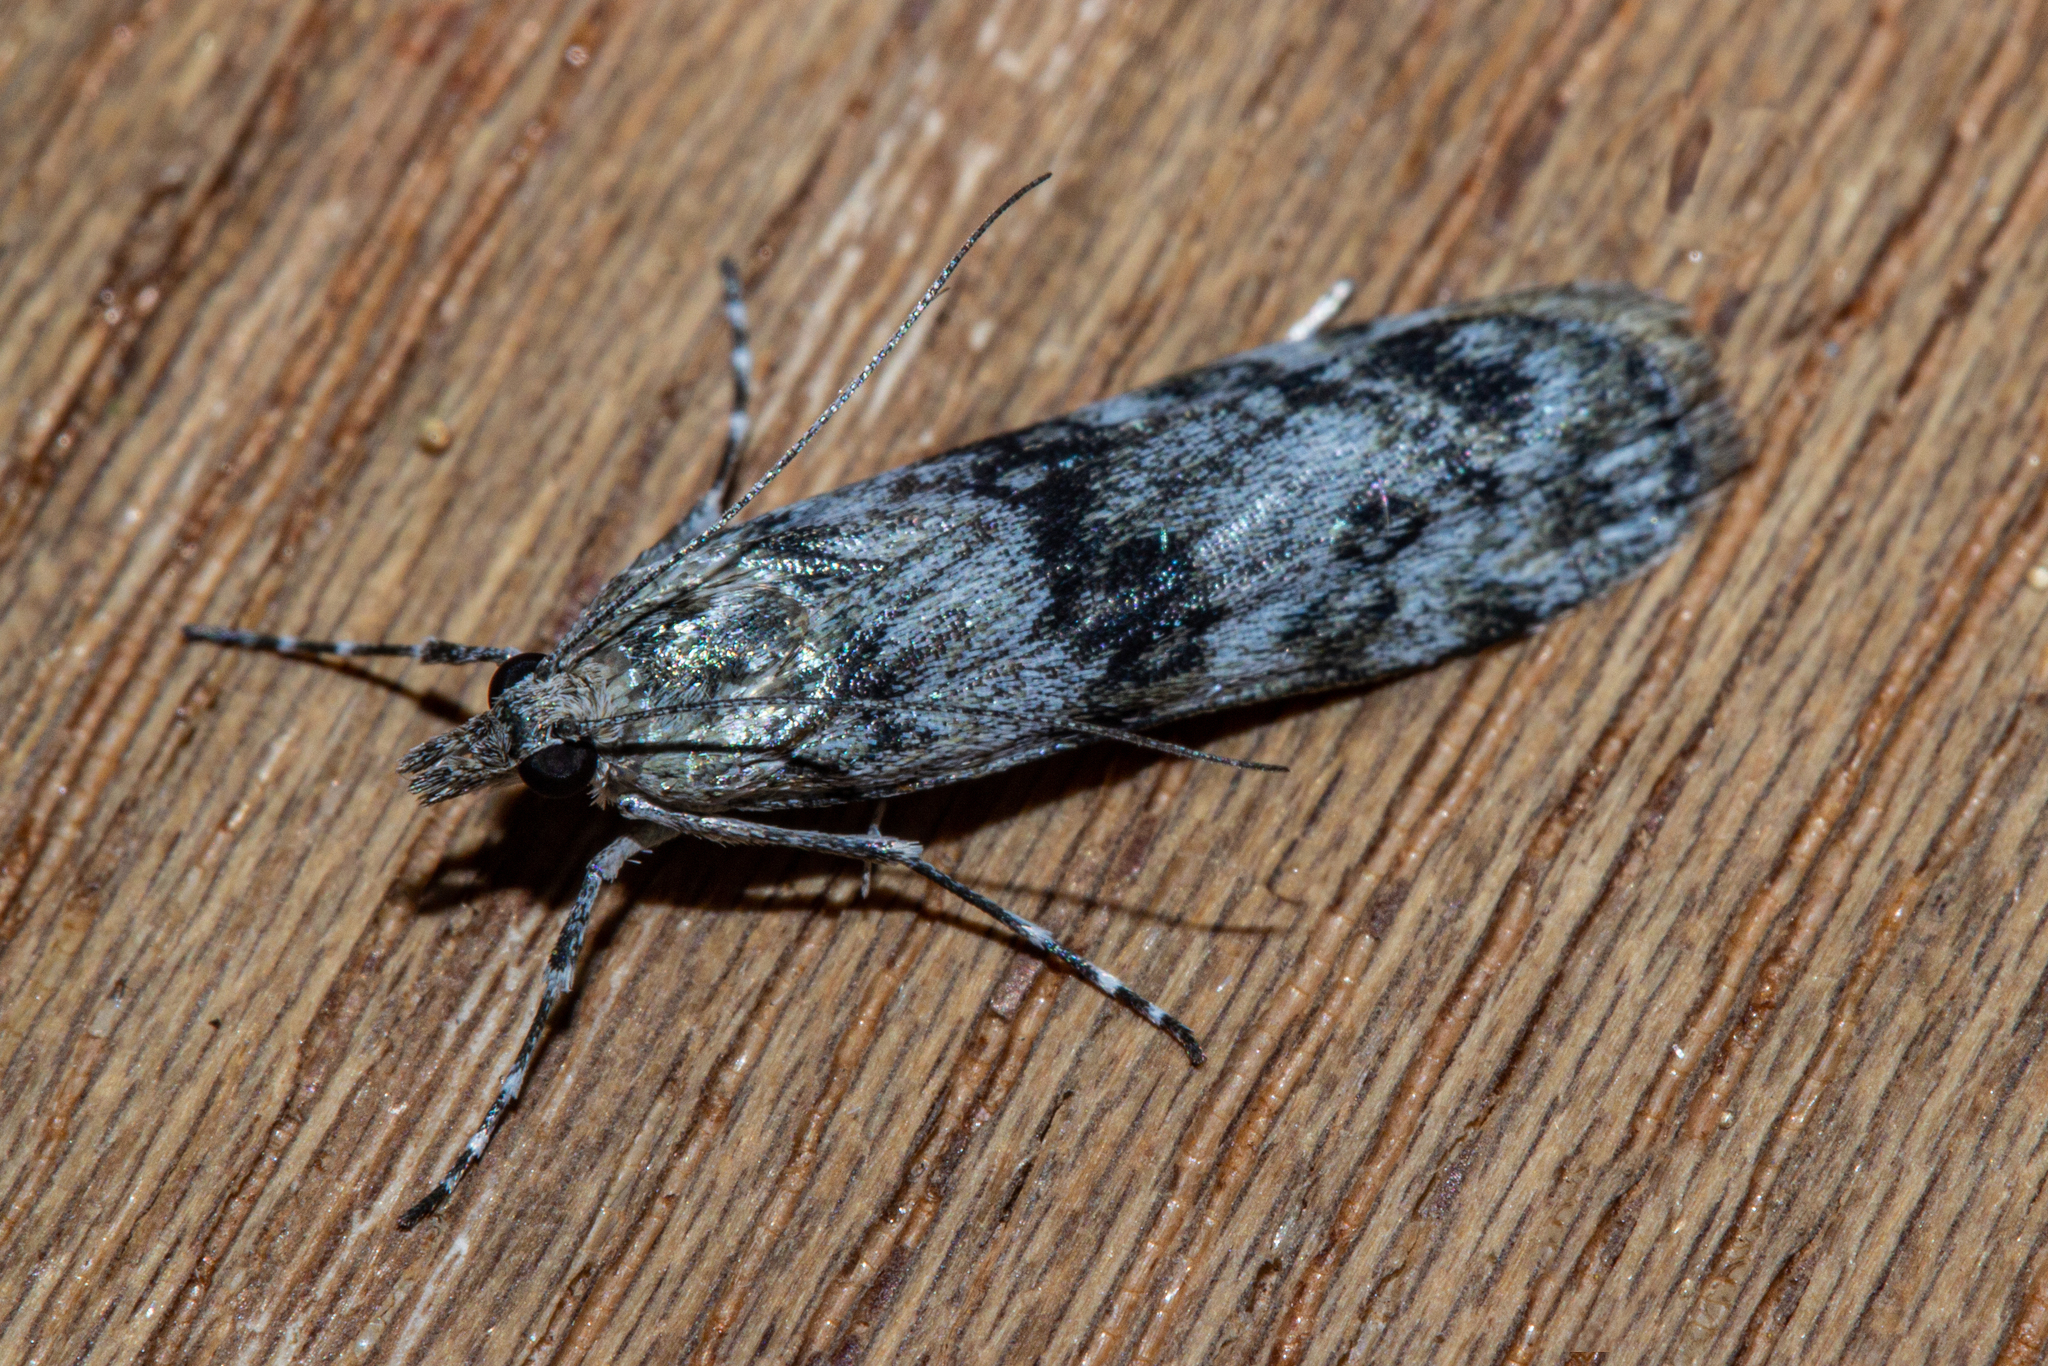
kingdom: Animalia
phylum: Arthropoda
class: Insecta
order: Lepidoptera
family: Crambidae
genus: Scoparia
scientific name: Scoparia asaleuta
